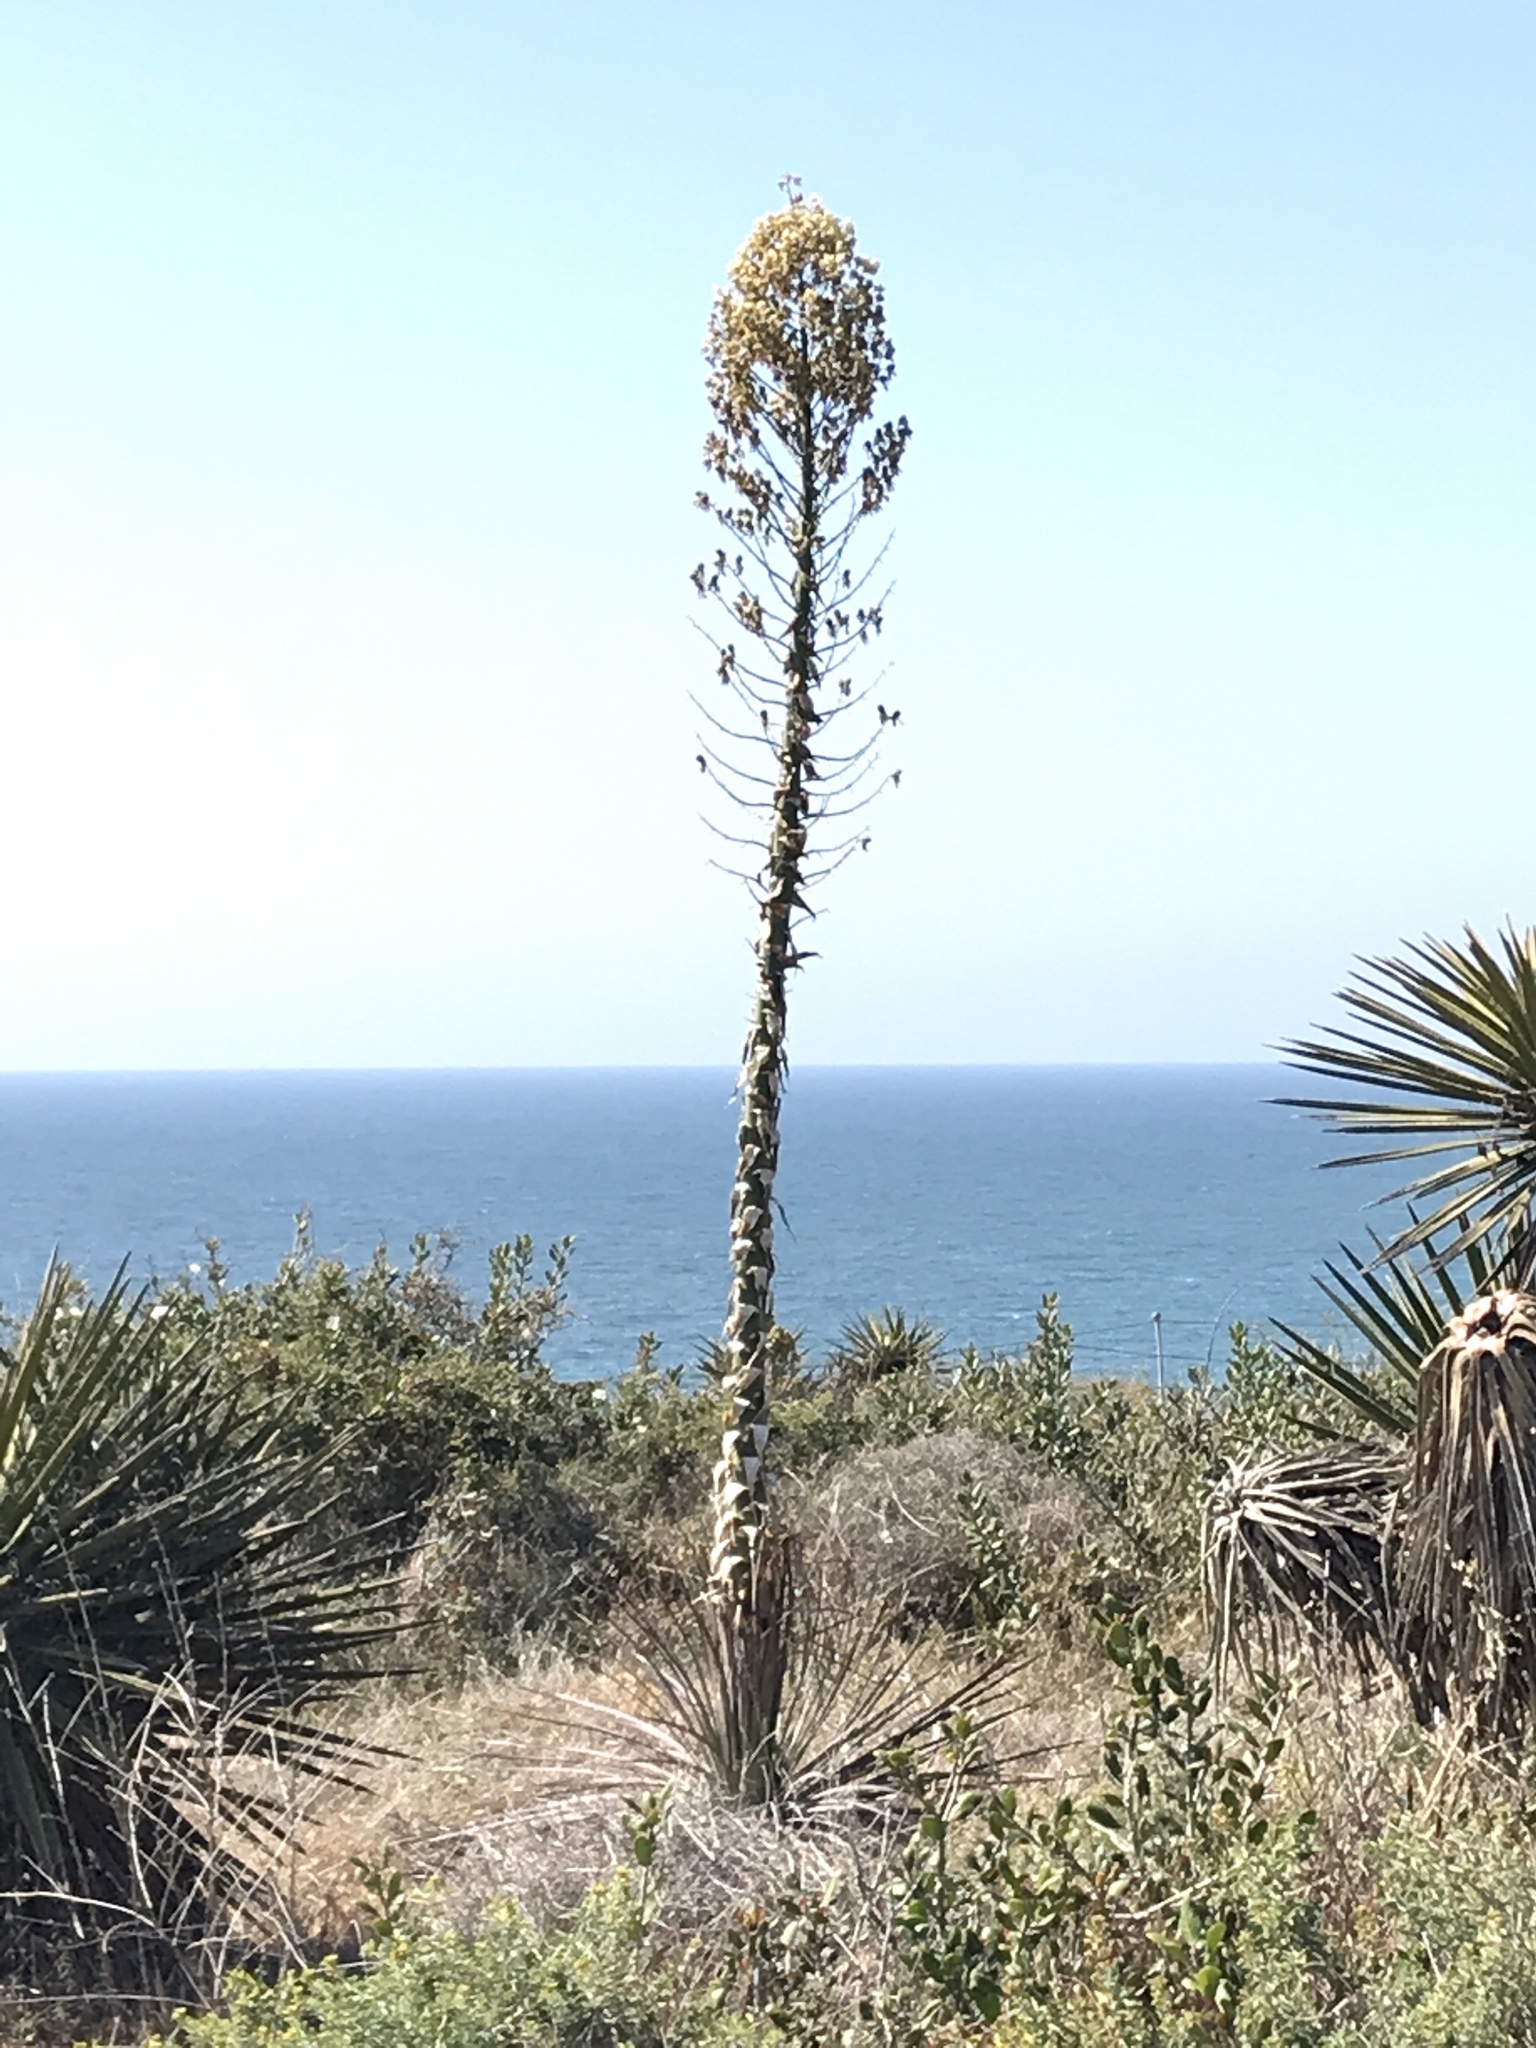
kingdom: Plantae
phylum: Tracheophyta
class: Liliopsida
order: Asparagales
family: Asparagaceae
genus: Hesperoyucca
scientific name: Hesperoyucca whipplei
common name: Our lord's-candle
